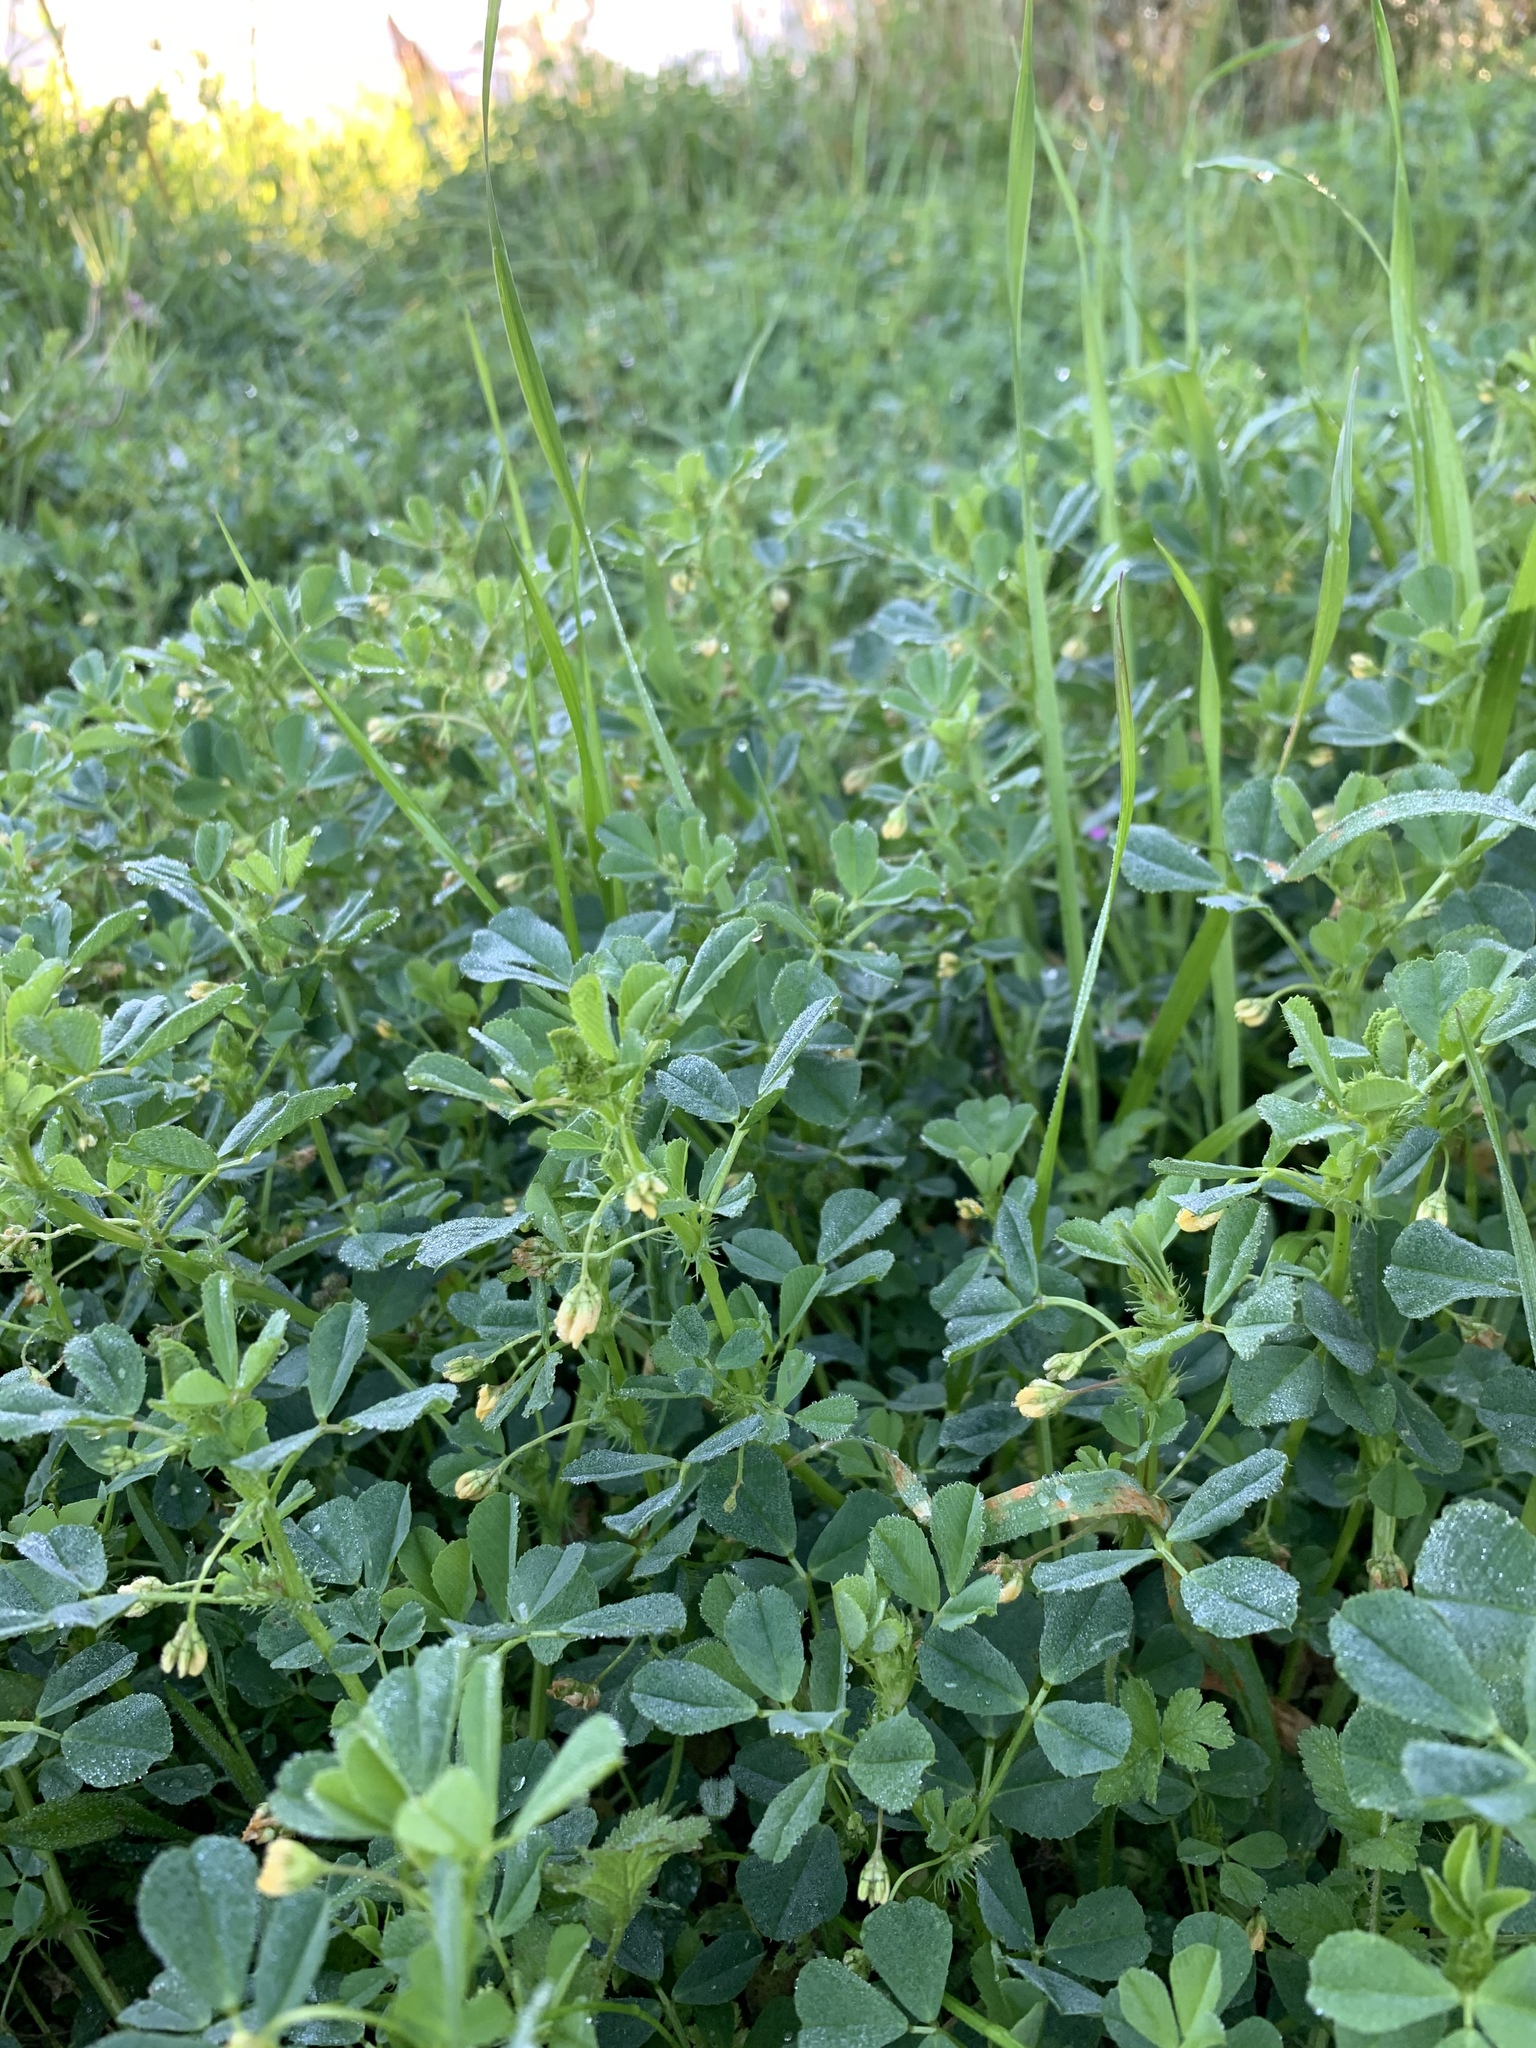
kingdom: Plantae
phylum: Tracheophyta
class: Magnoliopsida
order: Fabales
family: Fabaceae
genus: Medicago
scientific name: Medicago polymorpha
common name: Burclover
